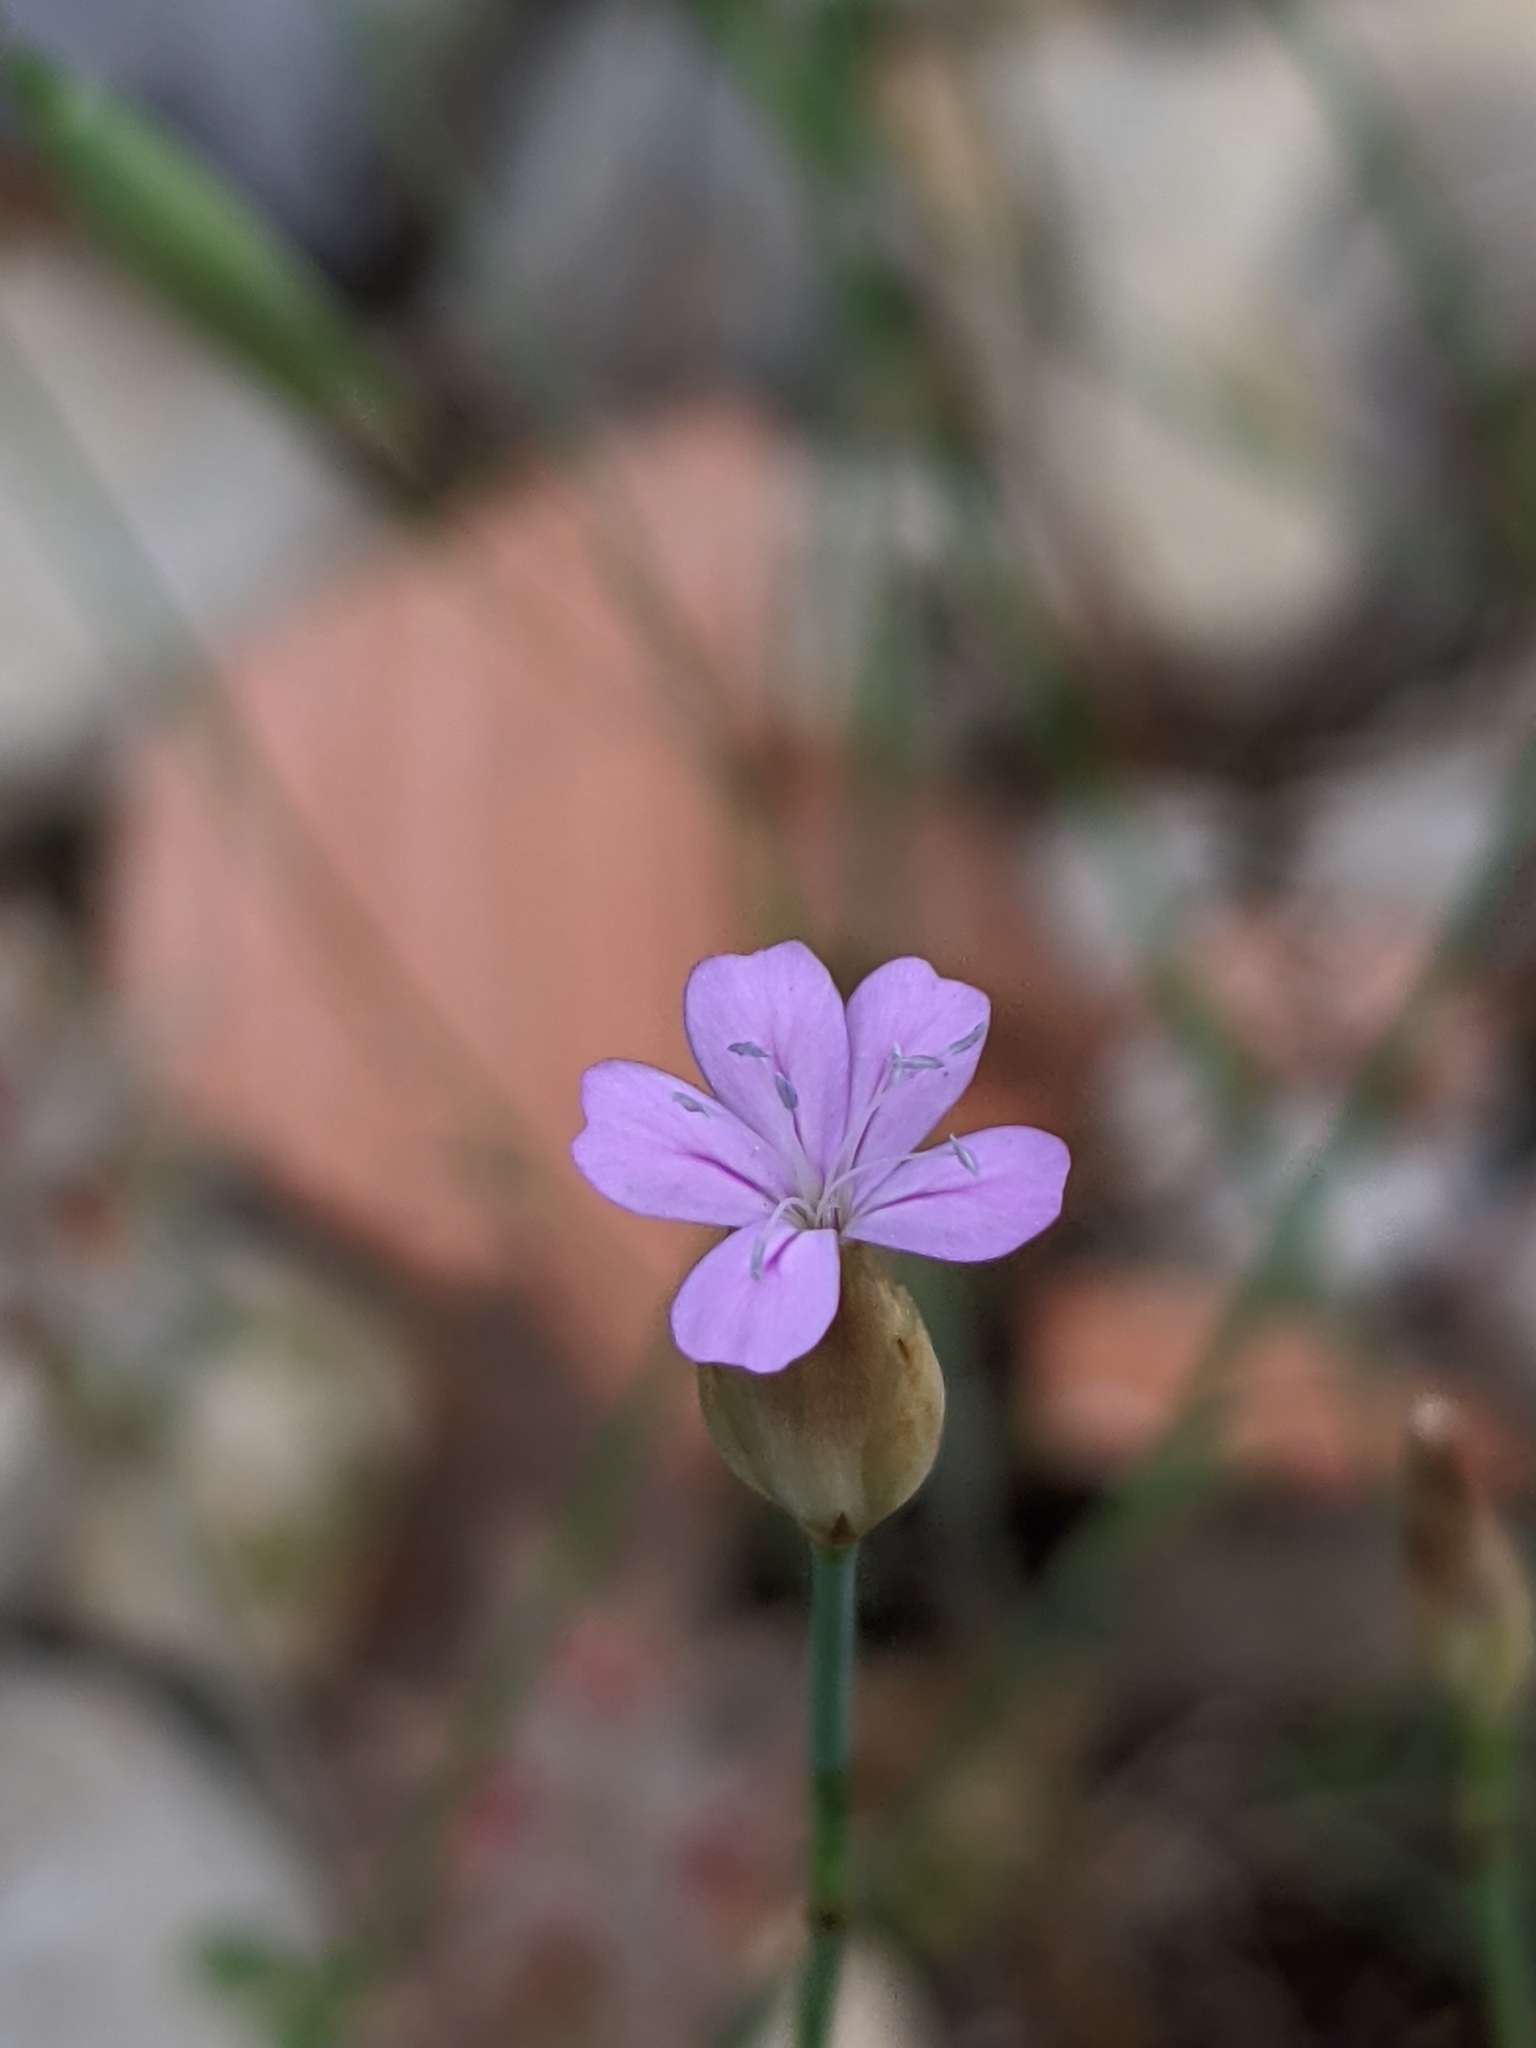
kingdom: Plantae
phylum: Tracheophyta
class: Magnoliopsida
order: Caryophyllales
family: Caryophyllaceae
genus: Petrorhagia
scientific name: Petrorhagia prolifera
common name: Proliferous pink
